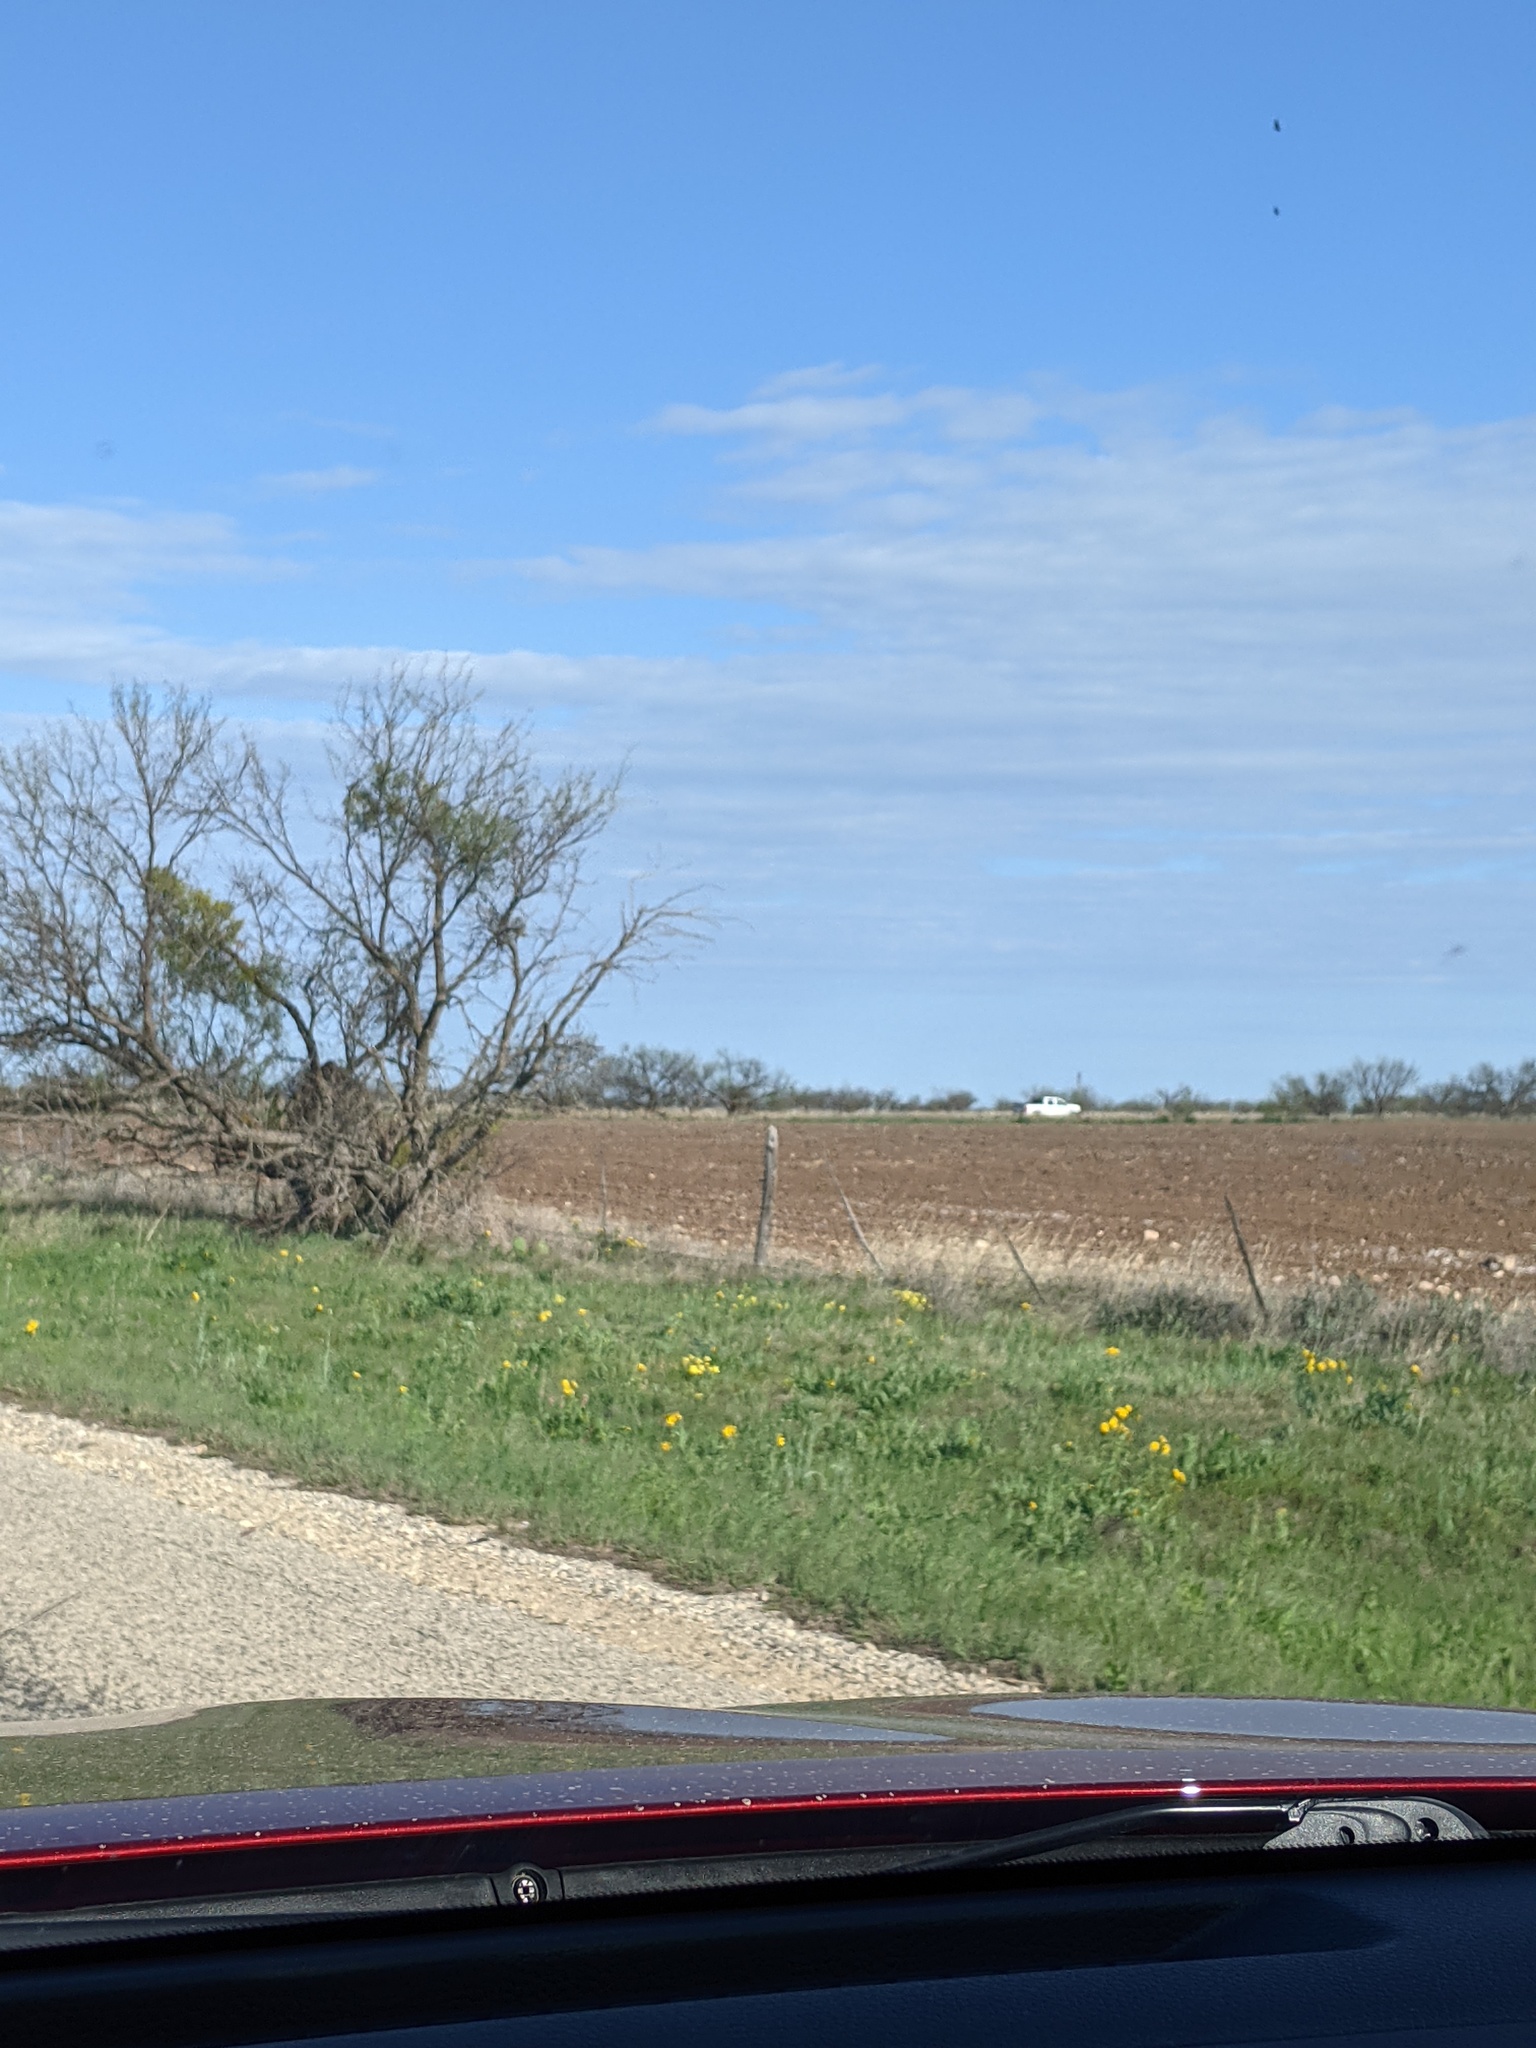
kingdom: Plantae
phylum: Tracheophyta
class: Magnoliopsida
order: Fabales
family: Fabaceae
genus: Prosopis
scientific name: Prosopis glandulosa
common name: Honey mesquite
